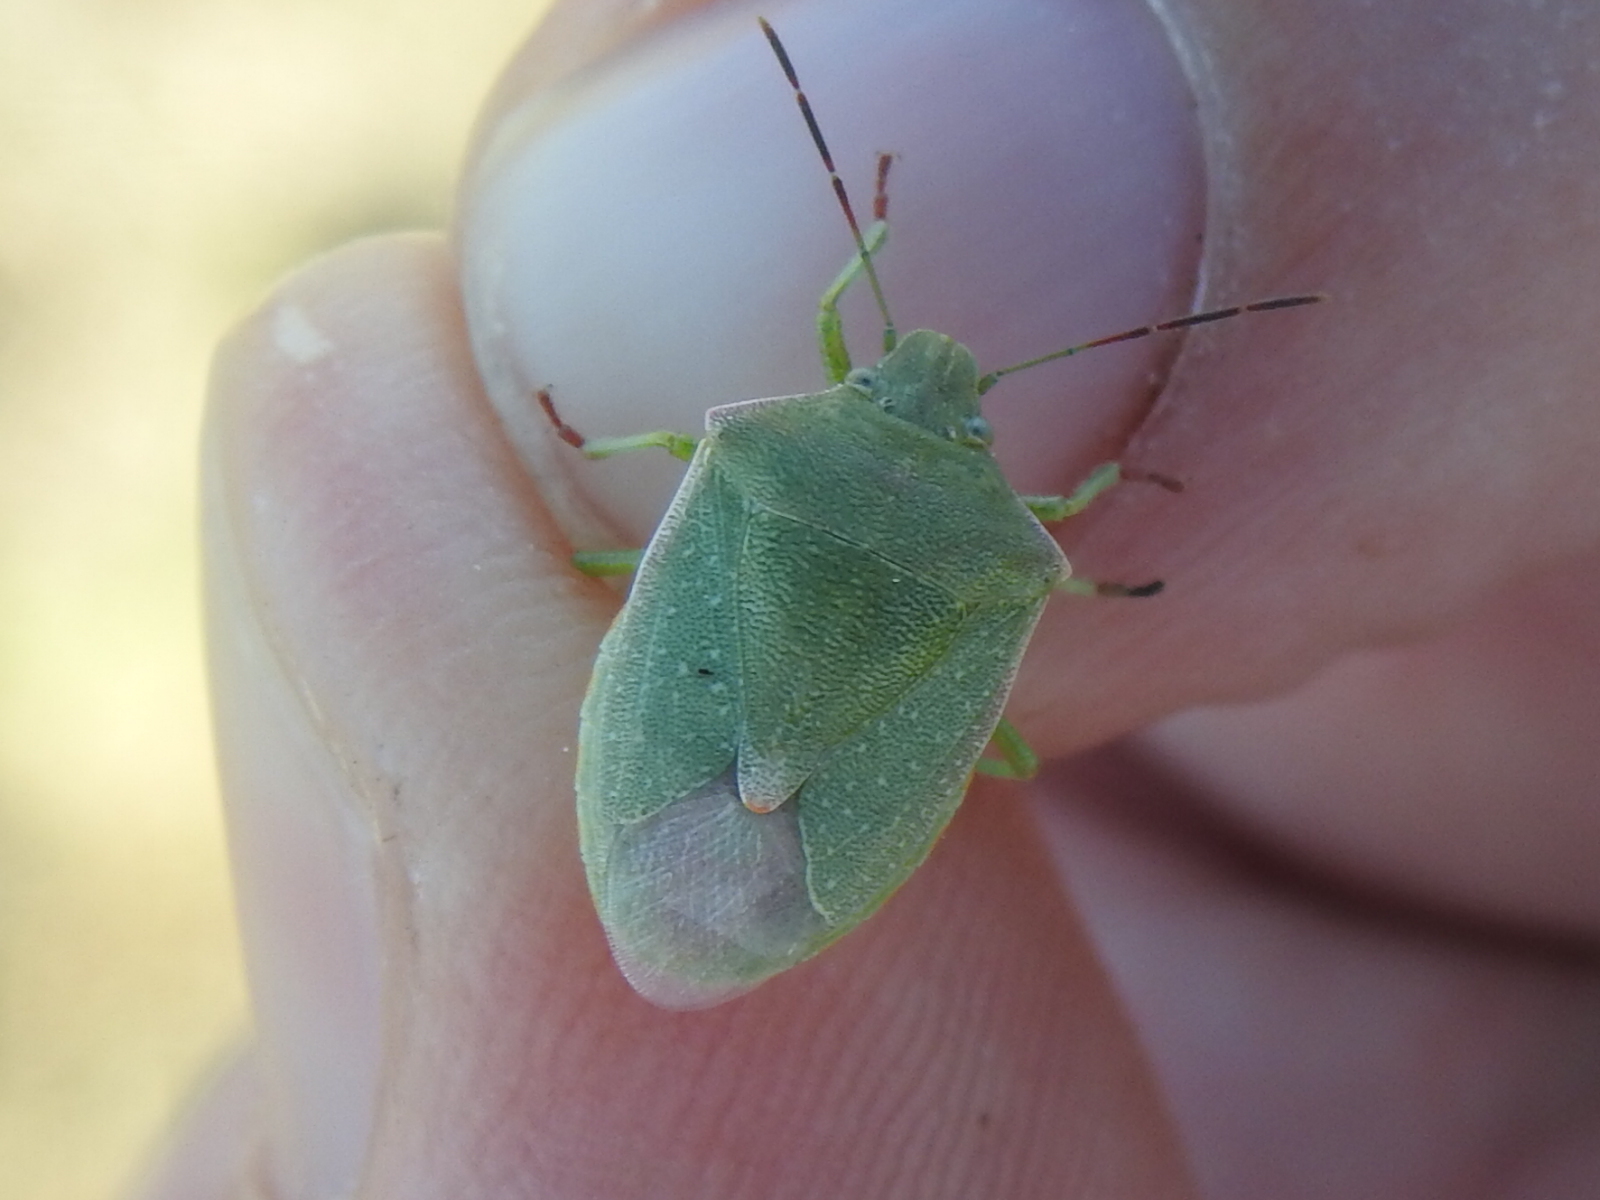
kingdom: Animalia
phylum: Arthropoda
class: Insecta
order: Hemiptera
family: Pentatomidae
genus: Thyanta
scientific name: Thyanta accerra
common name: Stink bug
